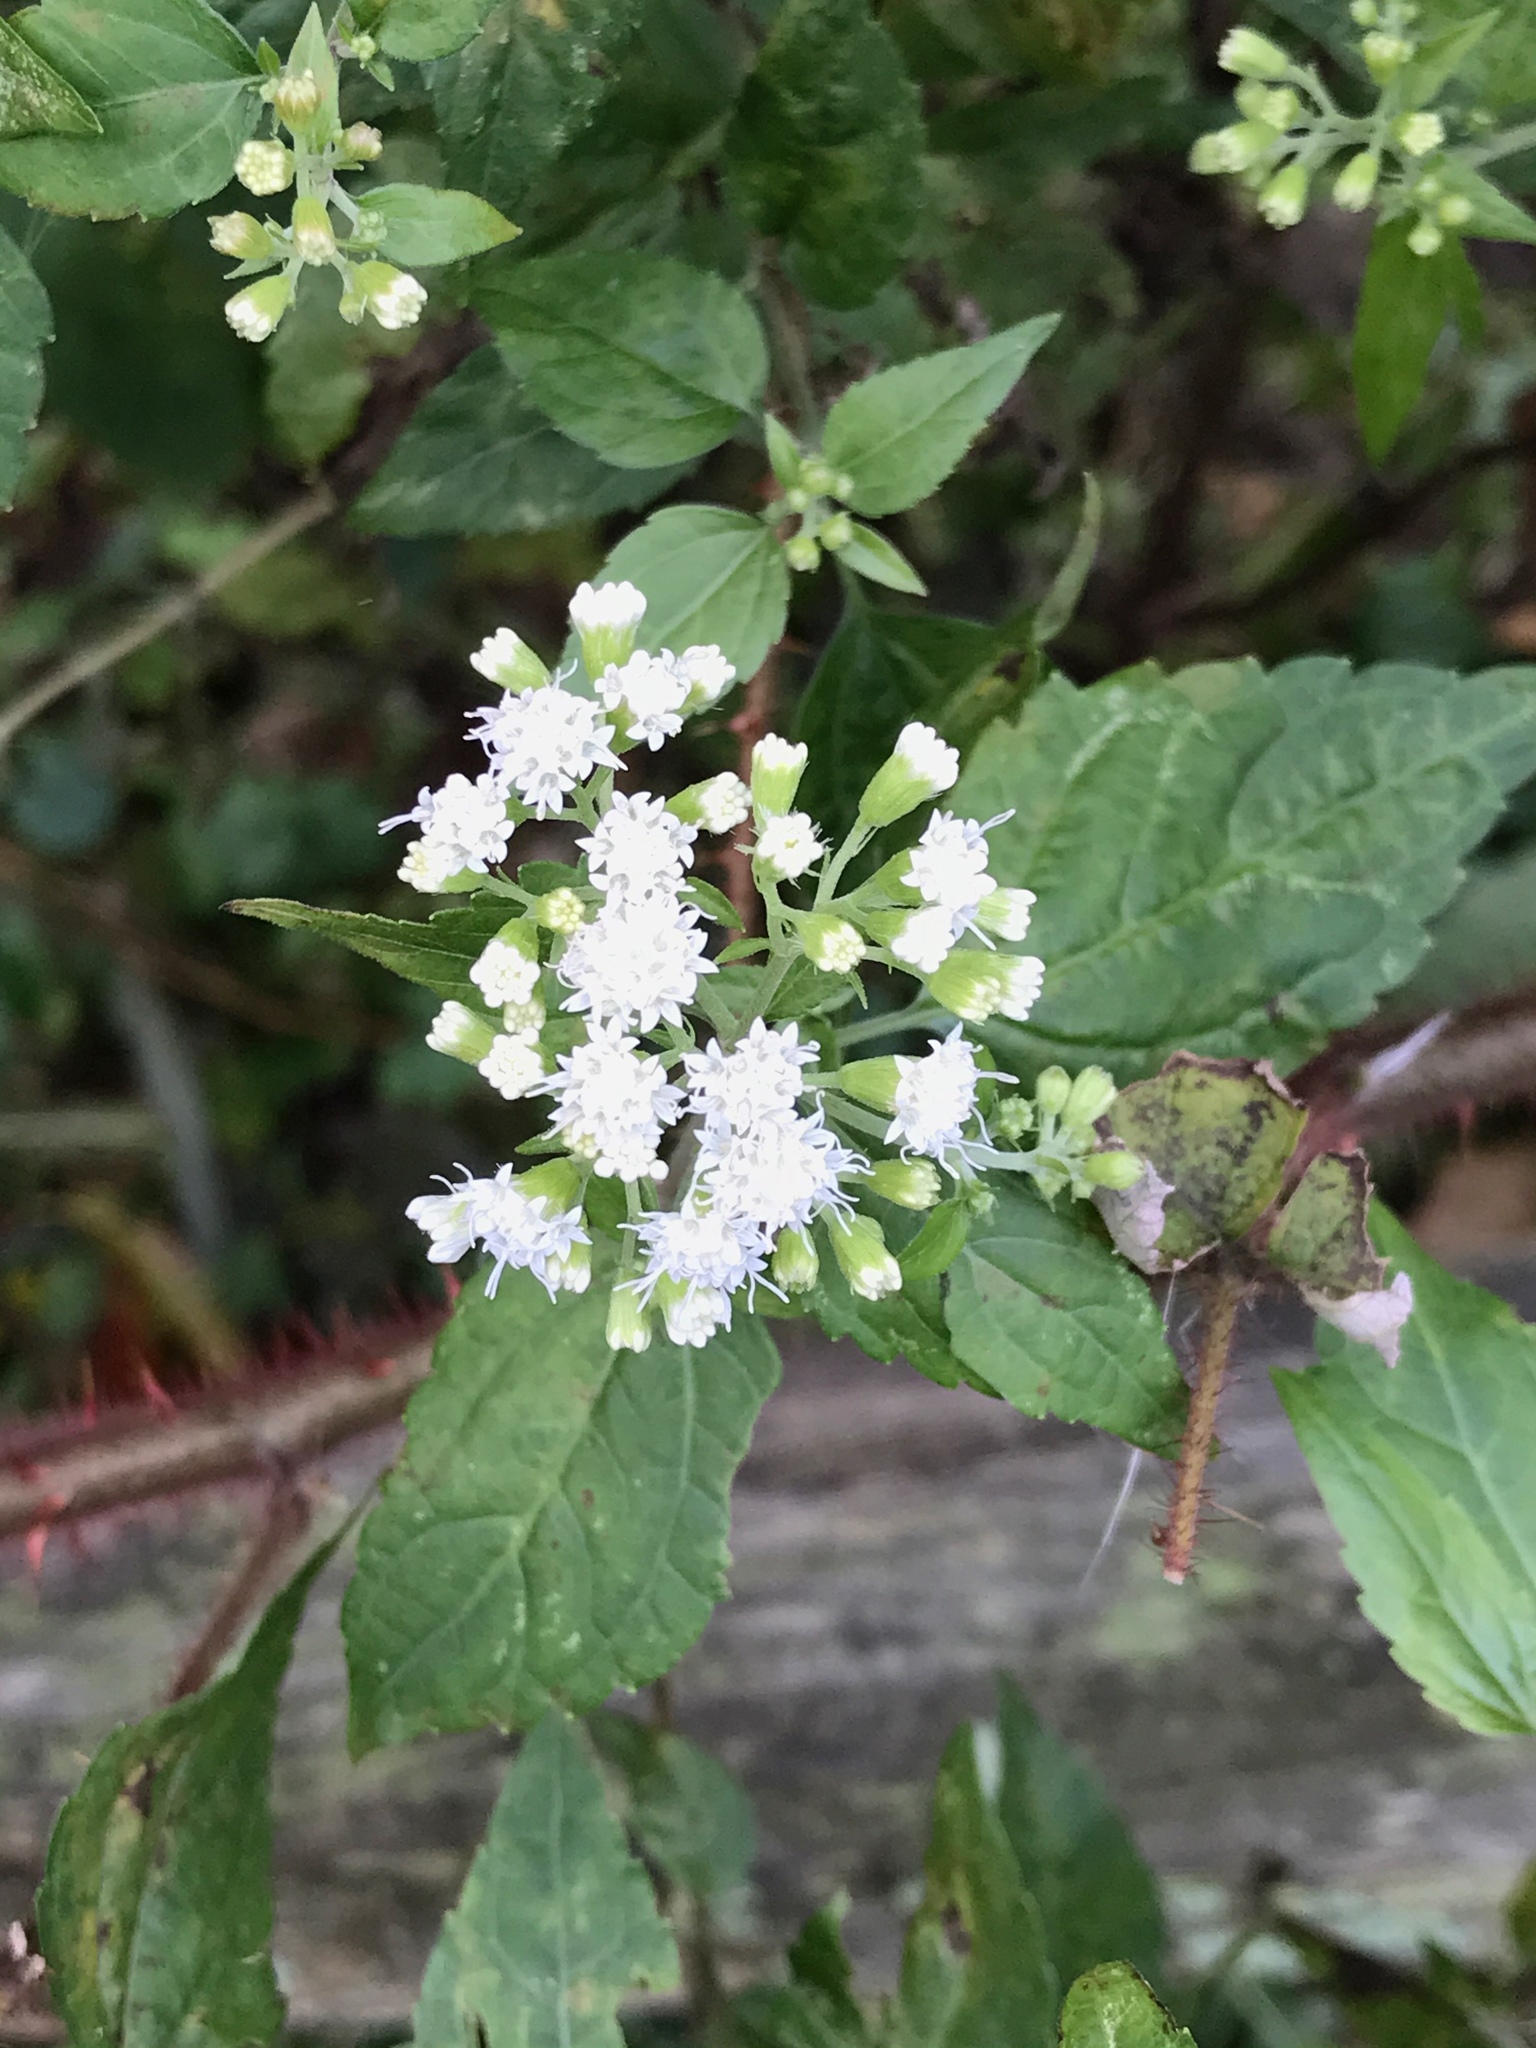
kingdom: Plantae
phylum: Tracheophyta
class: Magnoliopsida
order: Asterales
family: Asteraceae
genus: Ageratina
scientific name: Ageratina altissima
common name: White snakeroot
